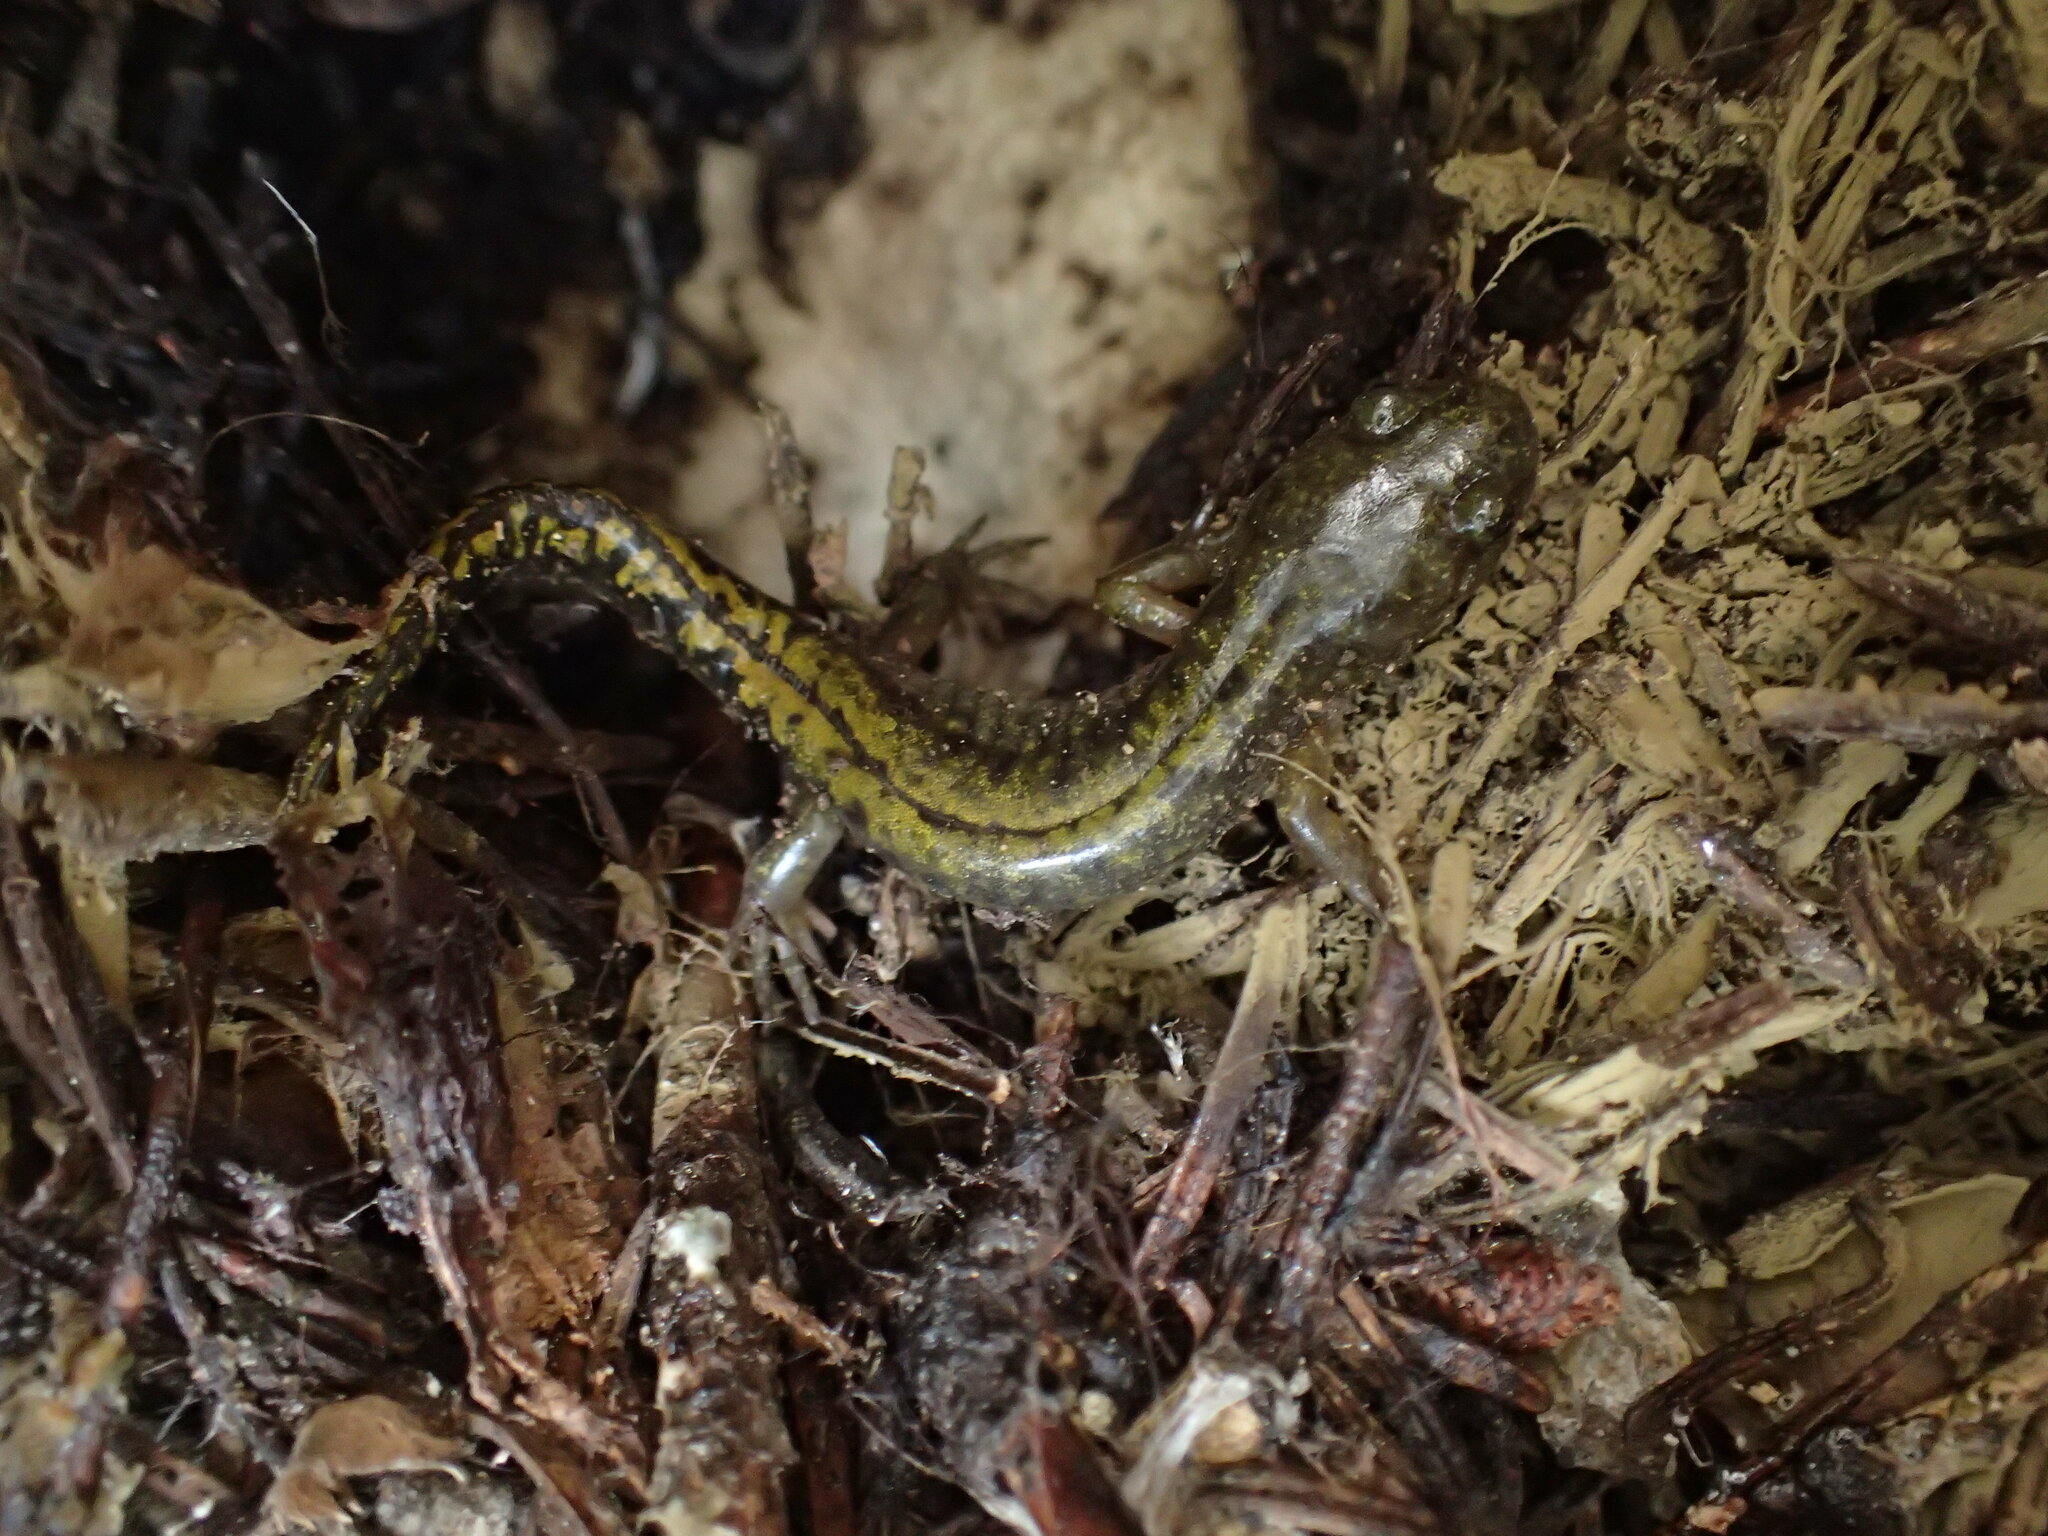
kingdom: Animalia
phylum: Chordata
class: Amphibia
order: Caudata
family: Ambystomatidae
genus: Ambystoma
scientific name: Ambystoma macrodactylum
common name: Long-toed salamander
